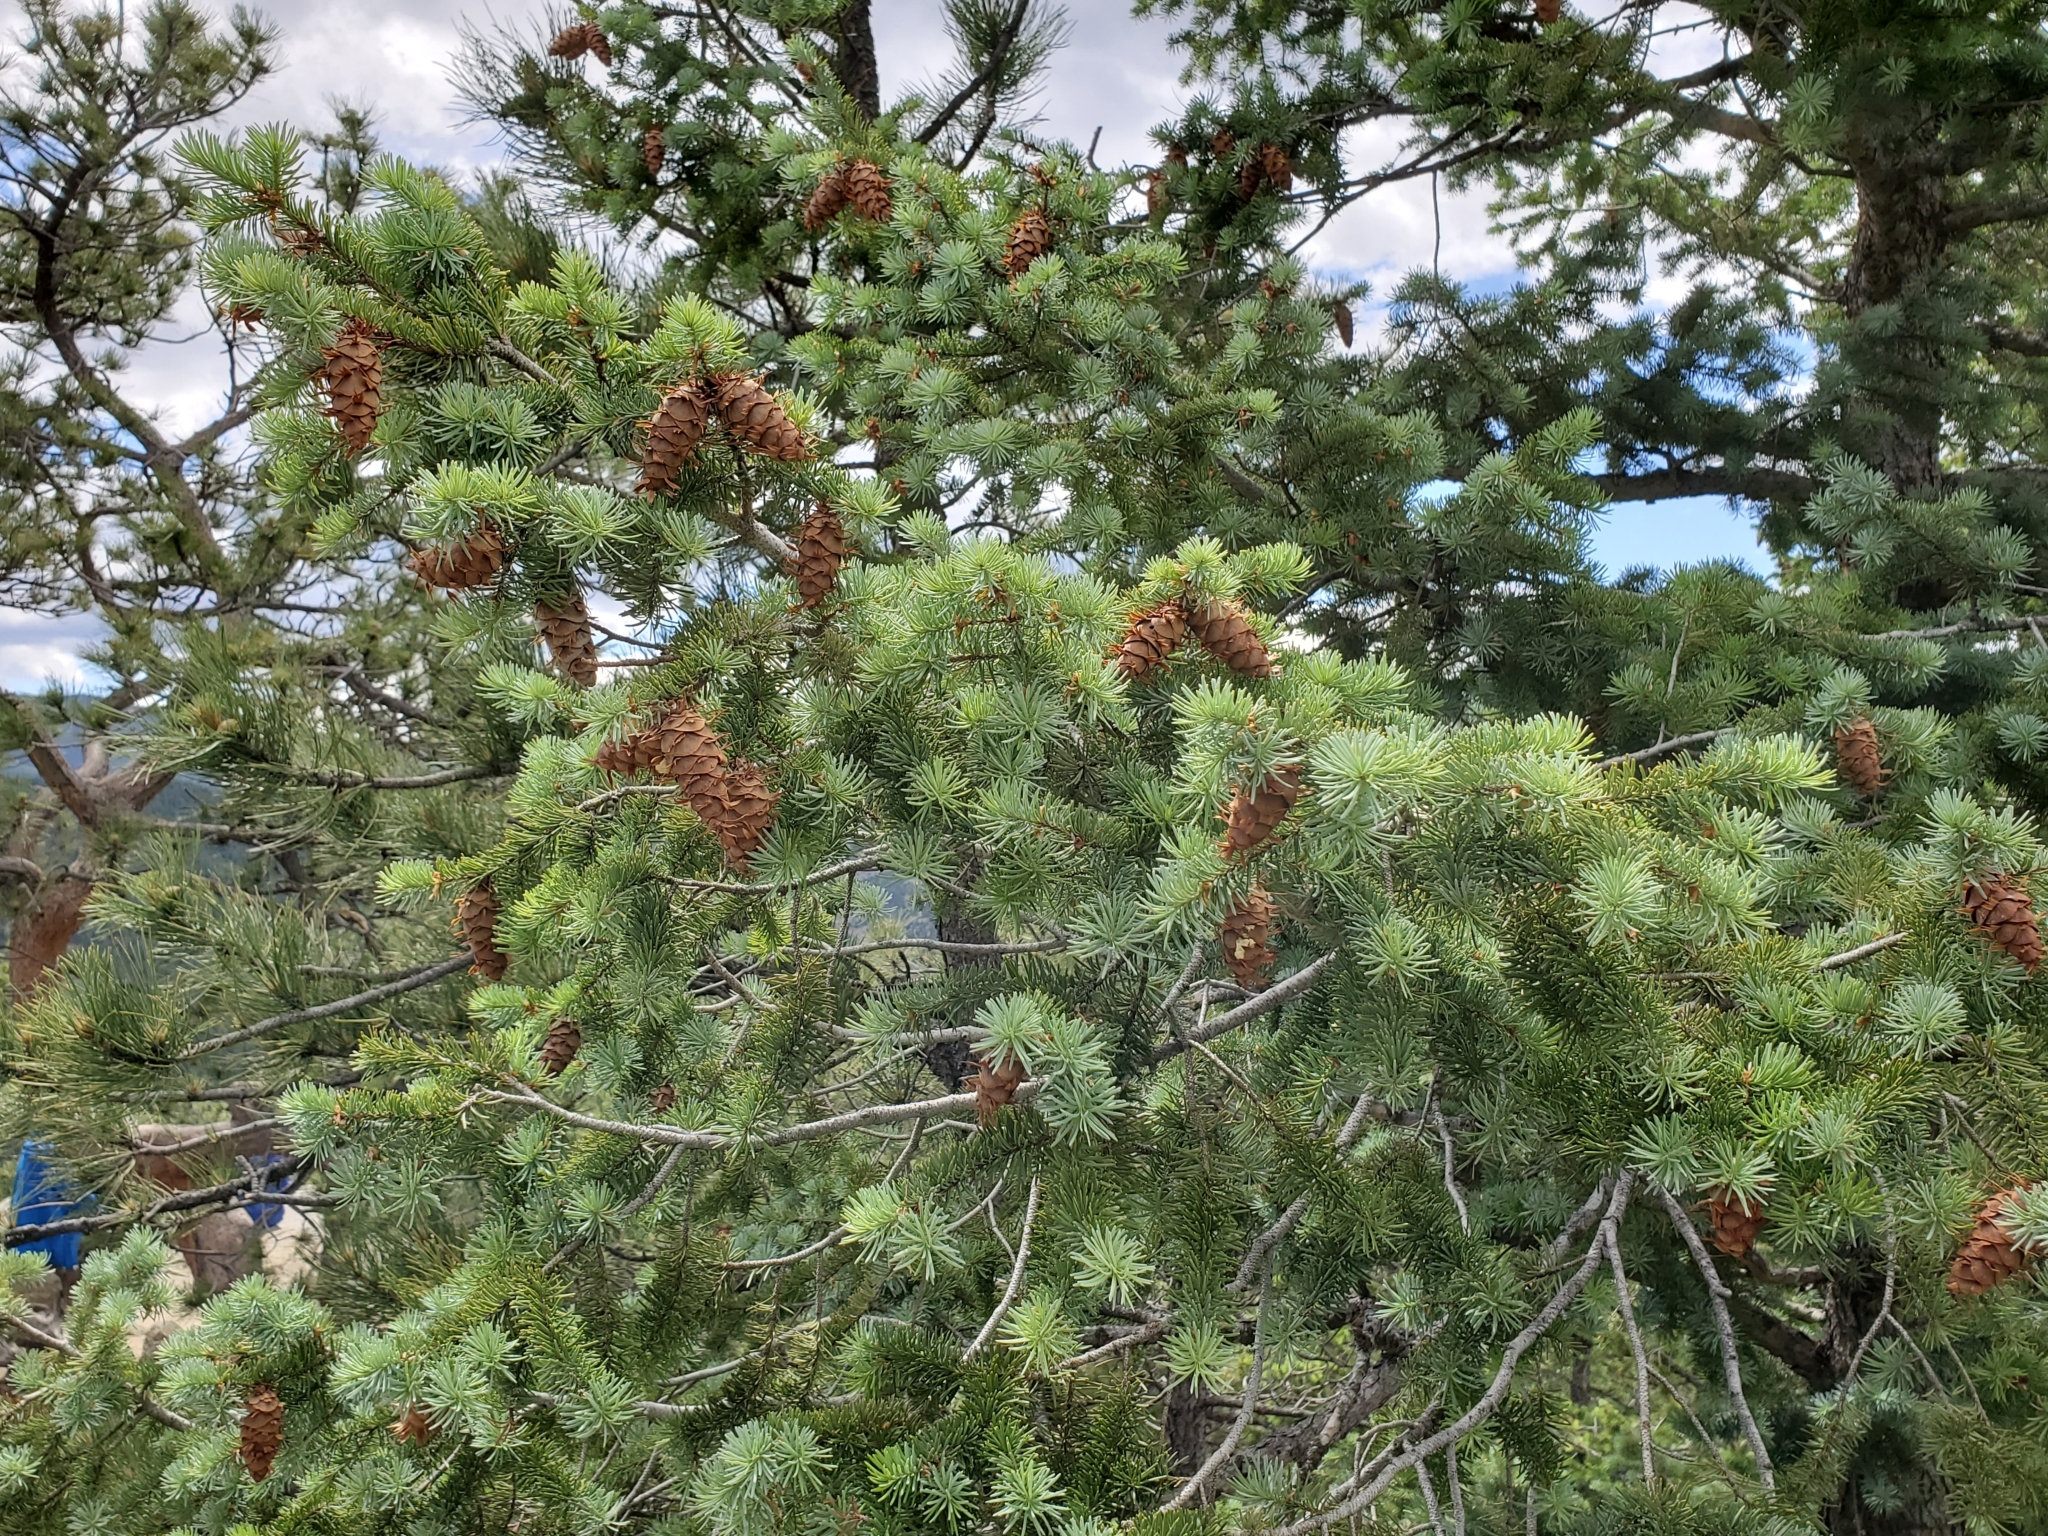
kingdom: Plantae
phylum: Tracheophyta
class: Pinopsida
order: Pinales
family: Pinaceae
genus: Pseudotsuga
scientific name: Pseudotsuga menziesii
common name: Douglas fir
